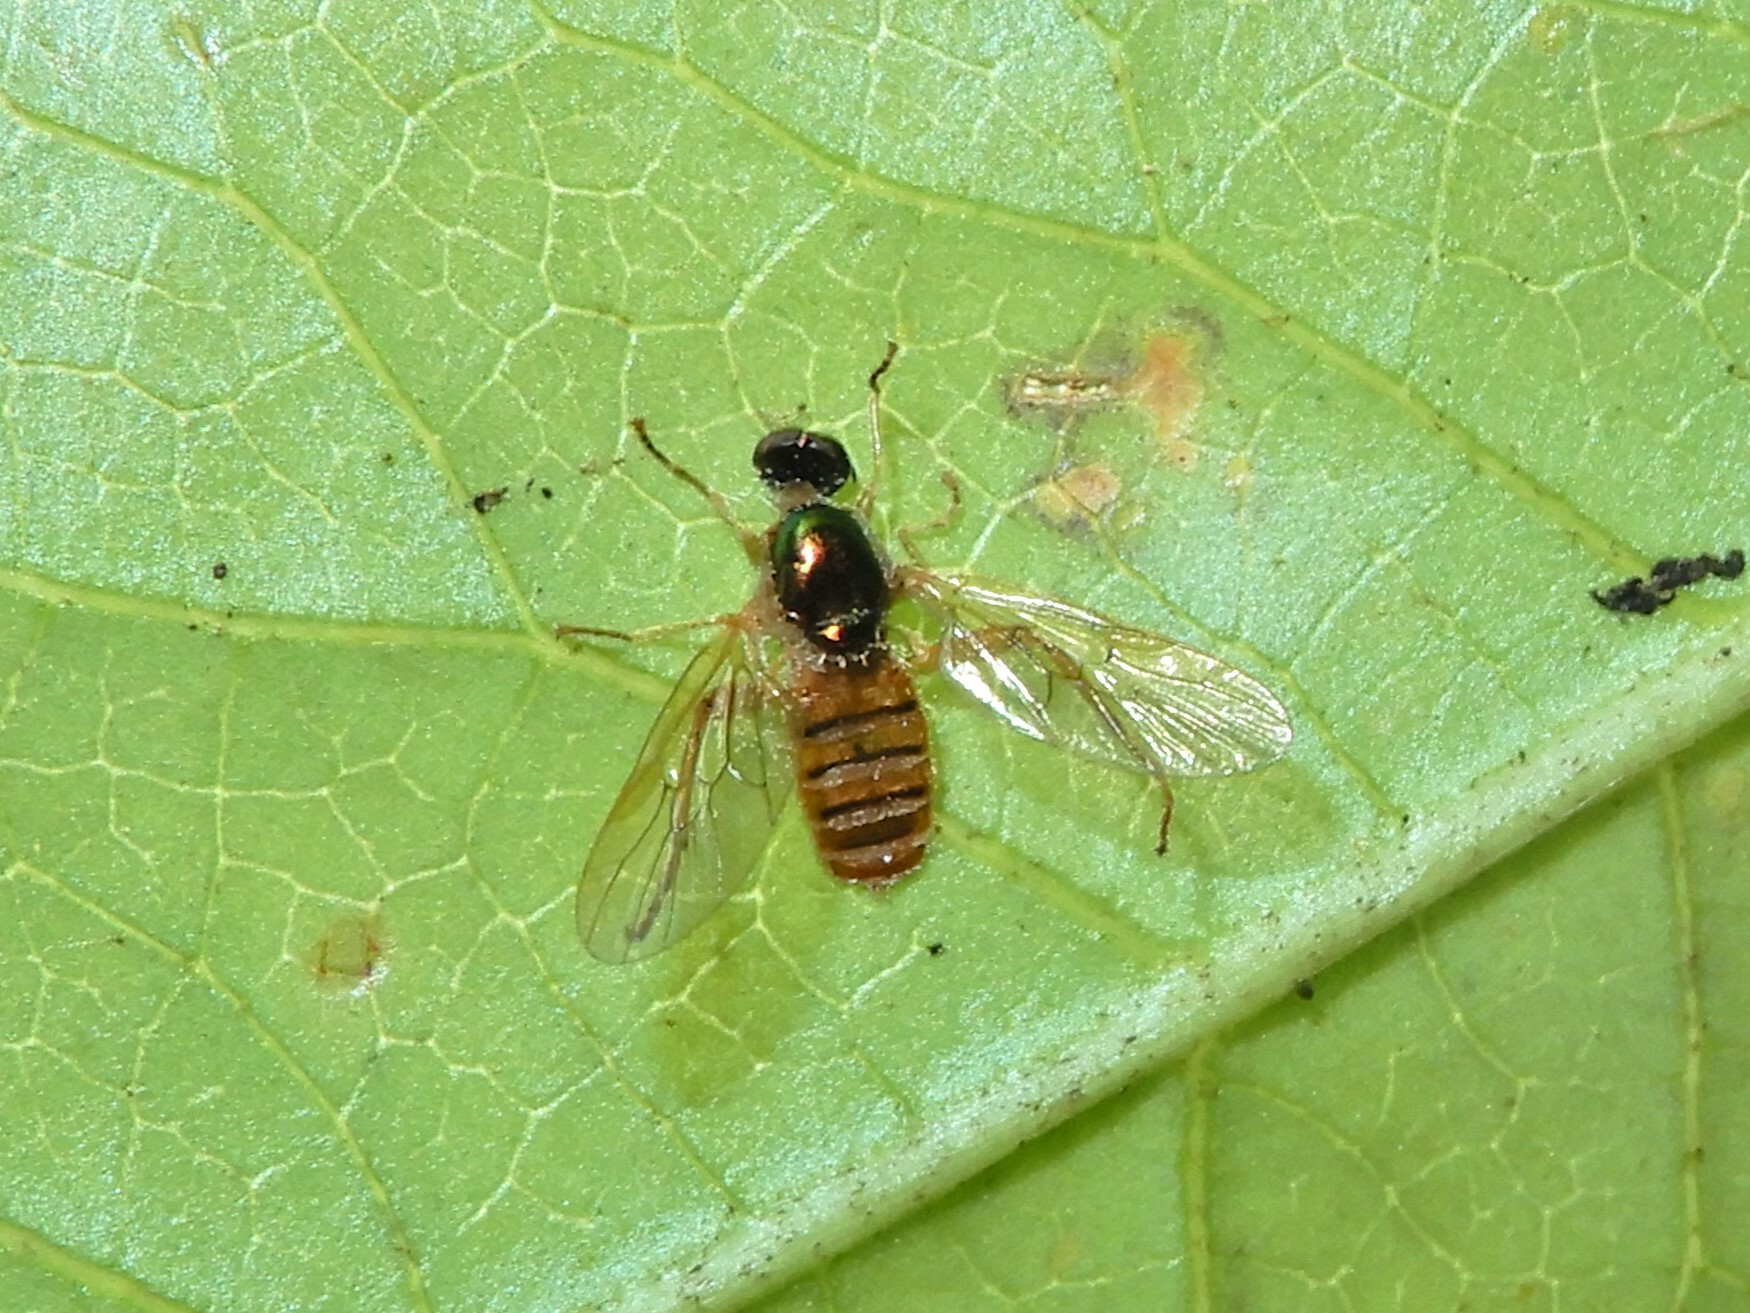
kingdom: Animalia
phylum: Arthropoda
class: Insecta
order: Diptera
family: Stratiomyidae
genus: Neactina
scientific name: Neactina opposita
